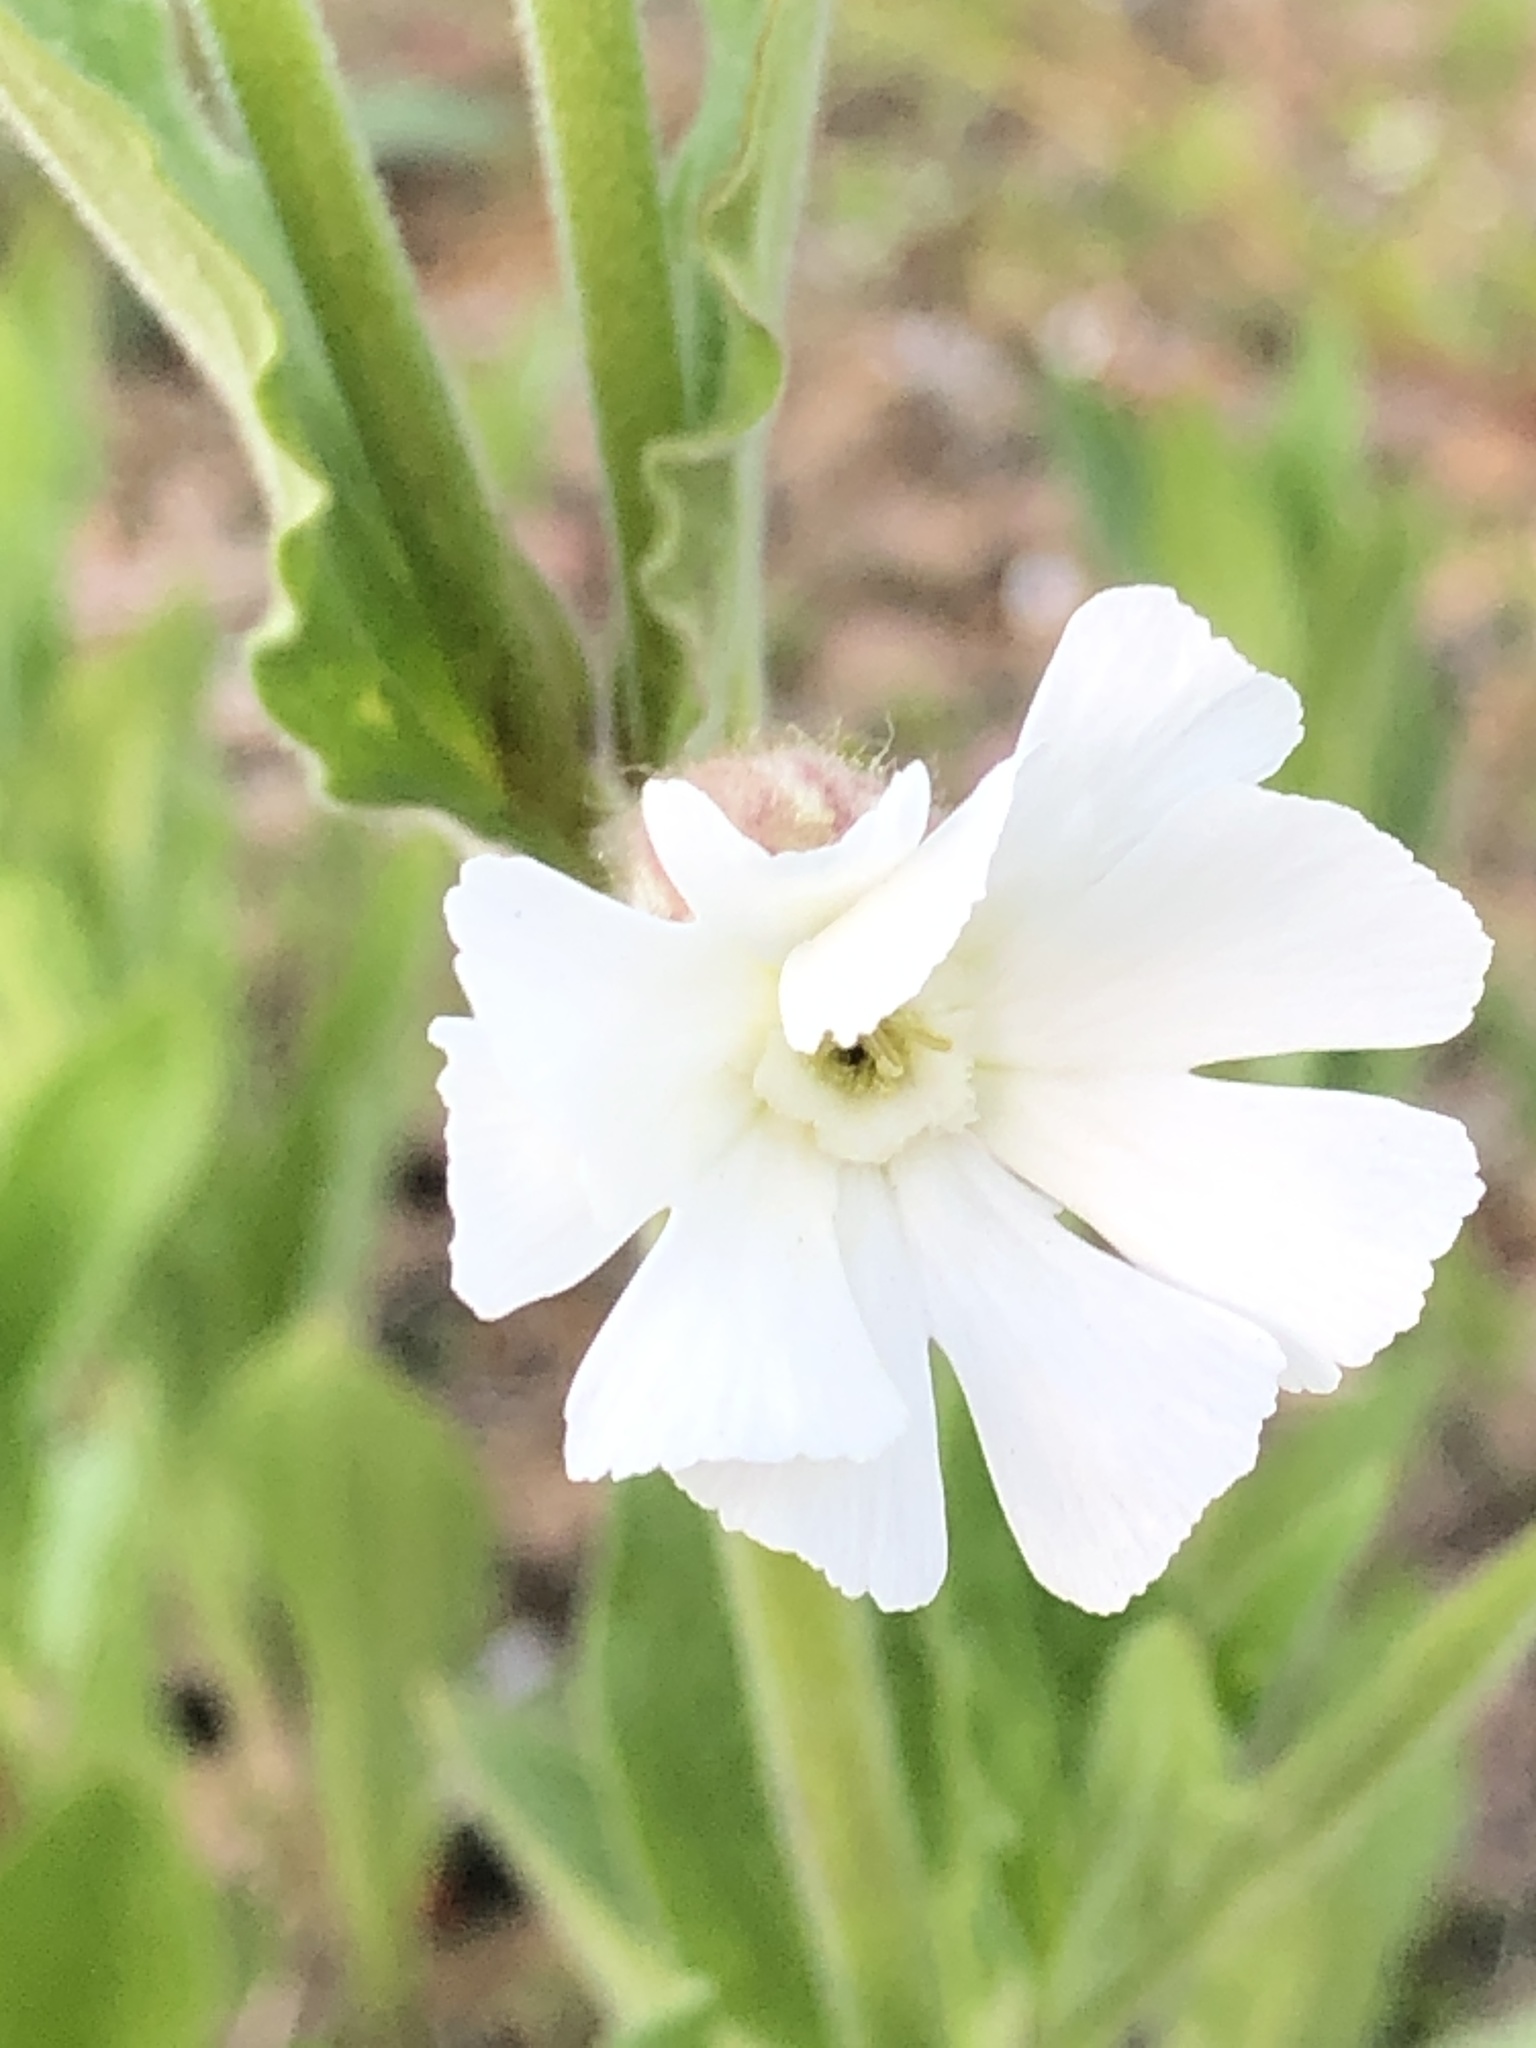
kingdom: Plantae
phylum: Tracheophyta
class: Magnoliopsida
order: Caryophyllales
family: Caryophyllaceae
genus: Silene
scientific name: Silene latifolia
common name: White campion
